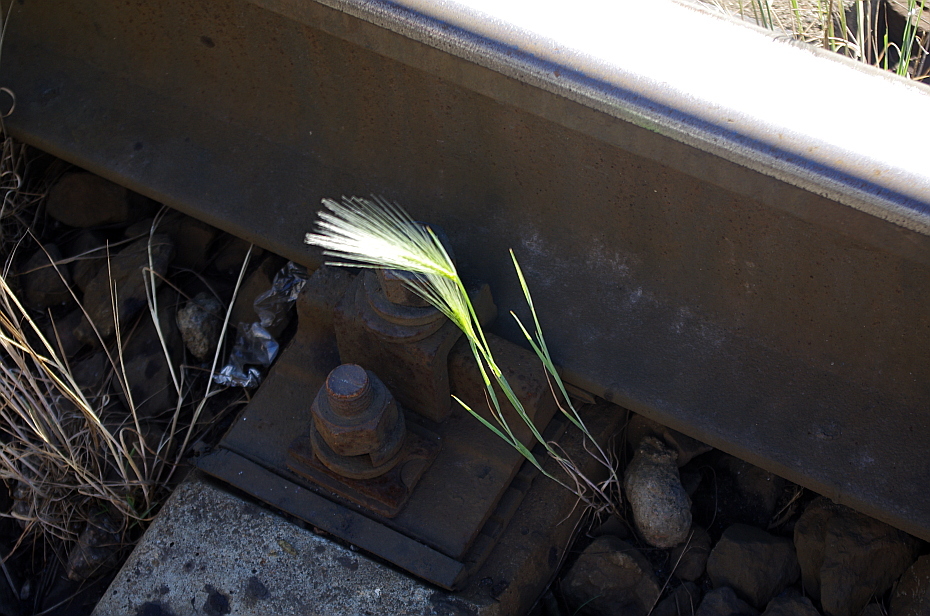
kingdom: Plantae
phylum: Tracheophyta
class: Liliopsida
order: Poales
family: Poaceae
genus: Hordeum
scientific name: Hordeum jubatum
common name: Foxtail barley
